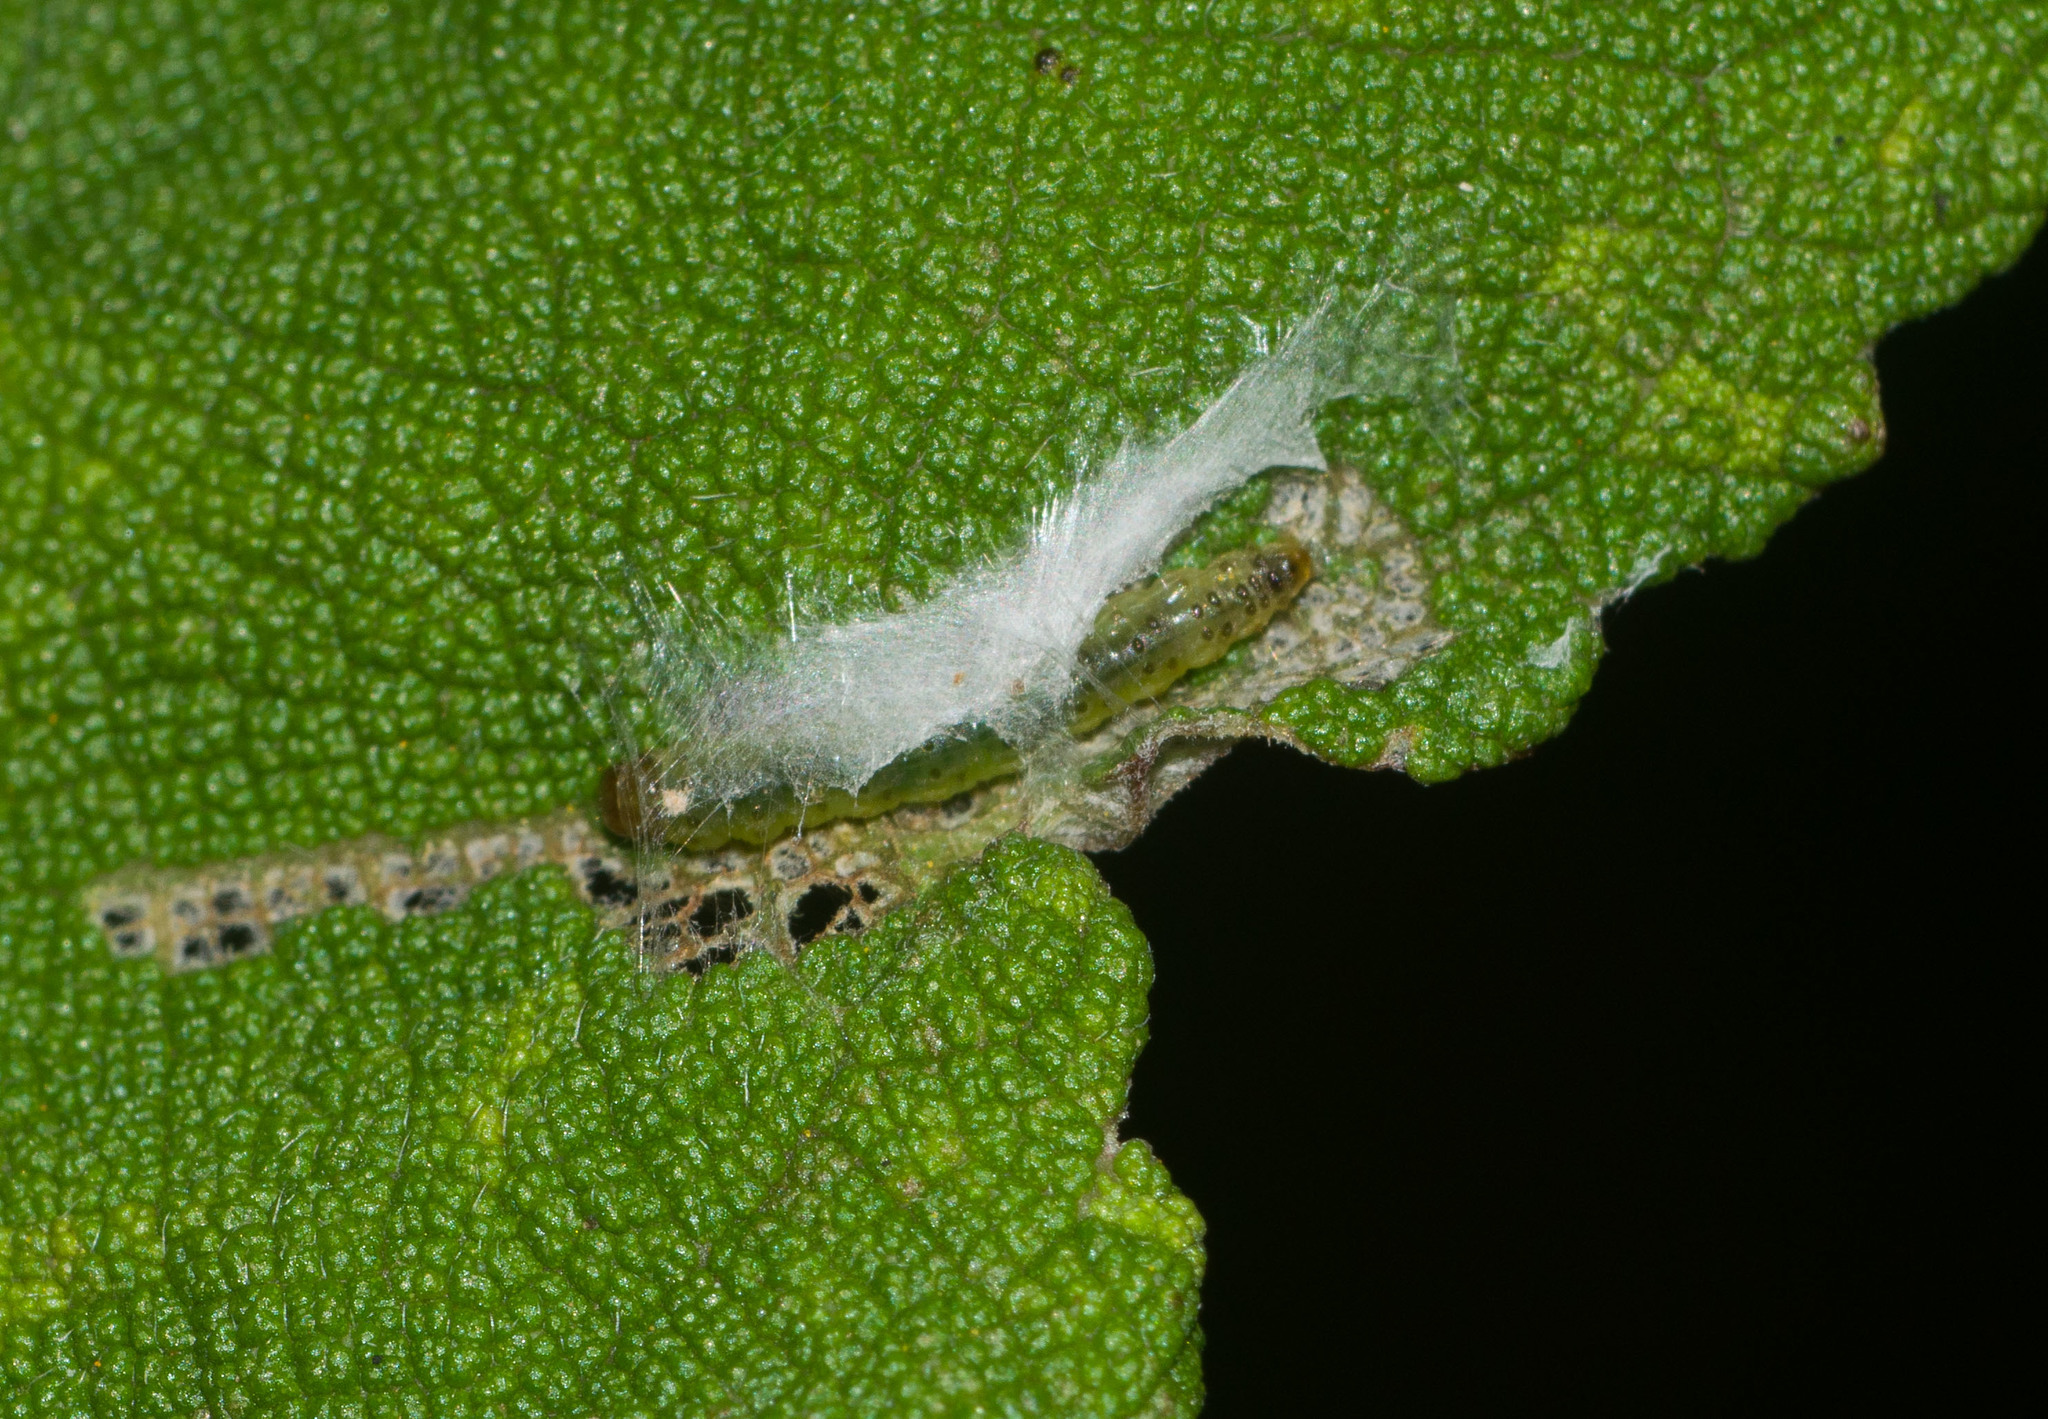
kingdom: Animalia
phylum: Arthropoda
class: Insecta
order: Lepidoptera
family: Tortricidae
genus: Spheterista
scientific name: Spheterista infaustana
